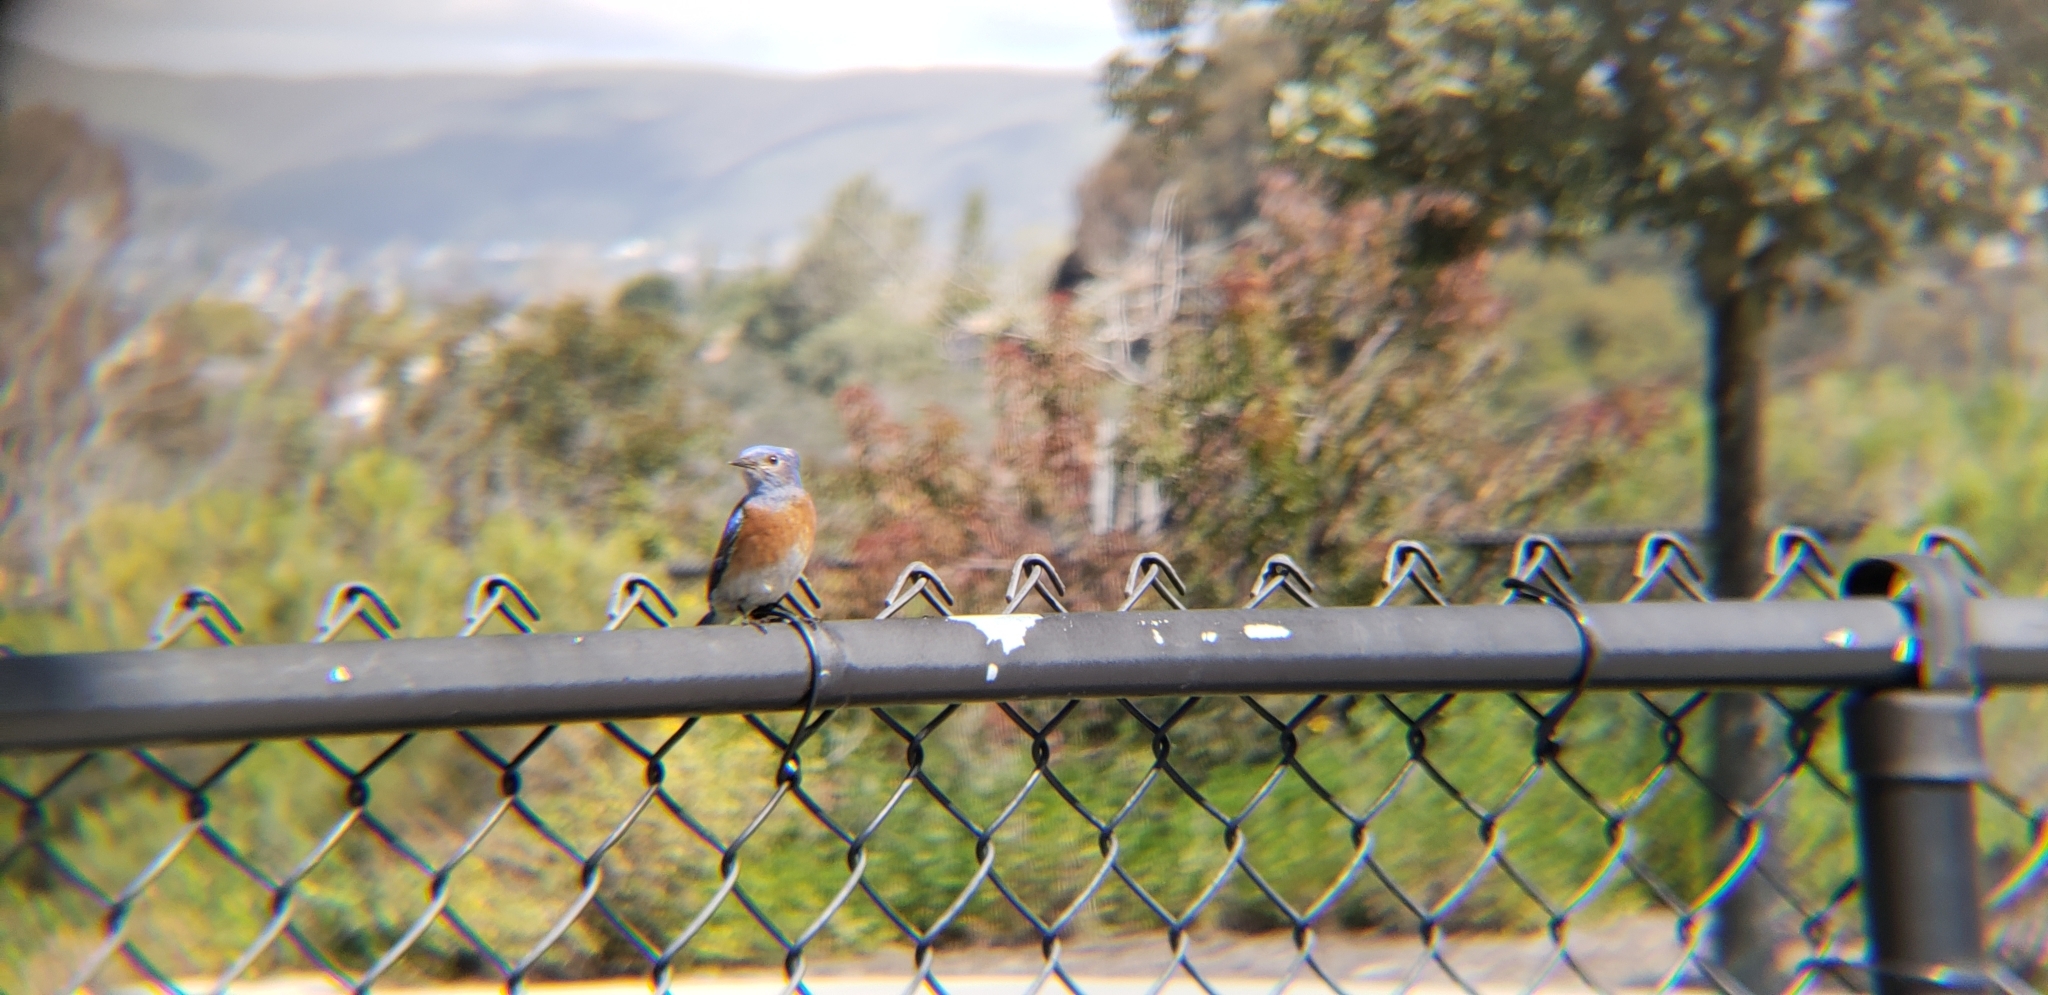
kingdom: Animalia
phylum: Chordata
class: Aves
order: Passeriformes
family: Turdidae
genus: Sialia
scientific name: Sialia mexicana
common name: Western bluebird
